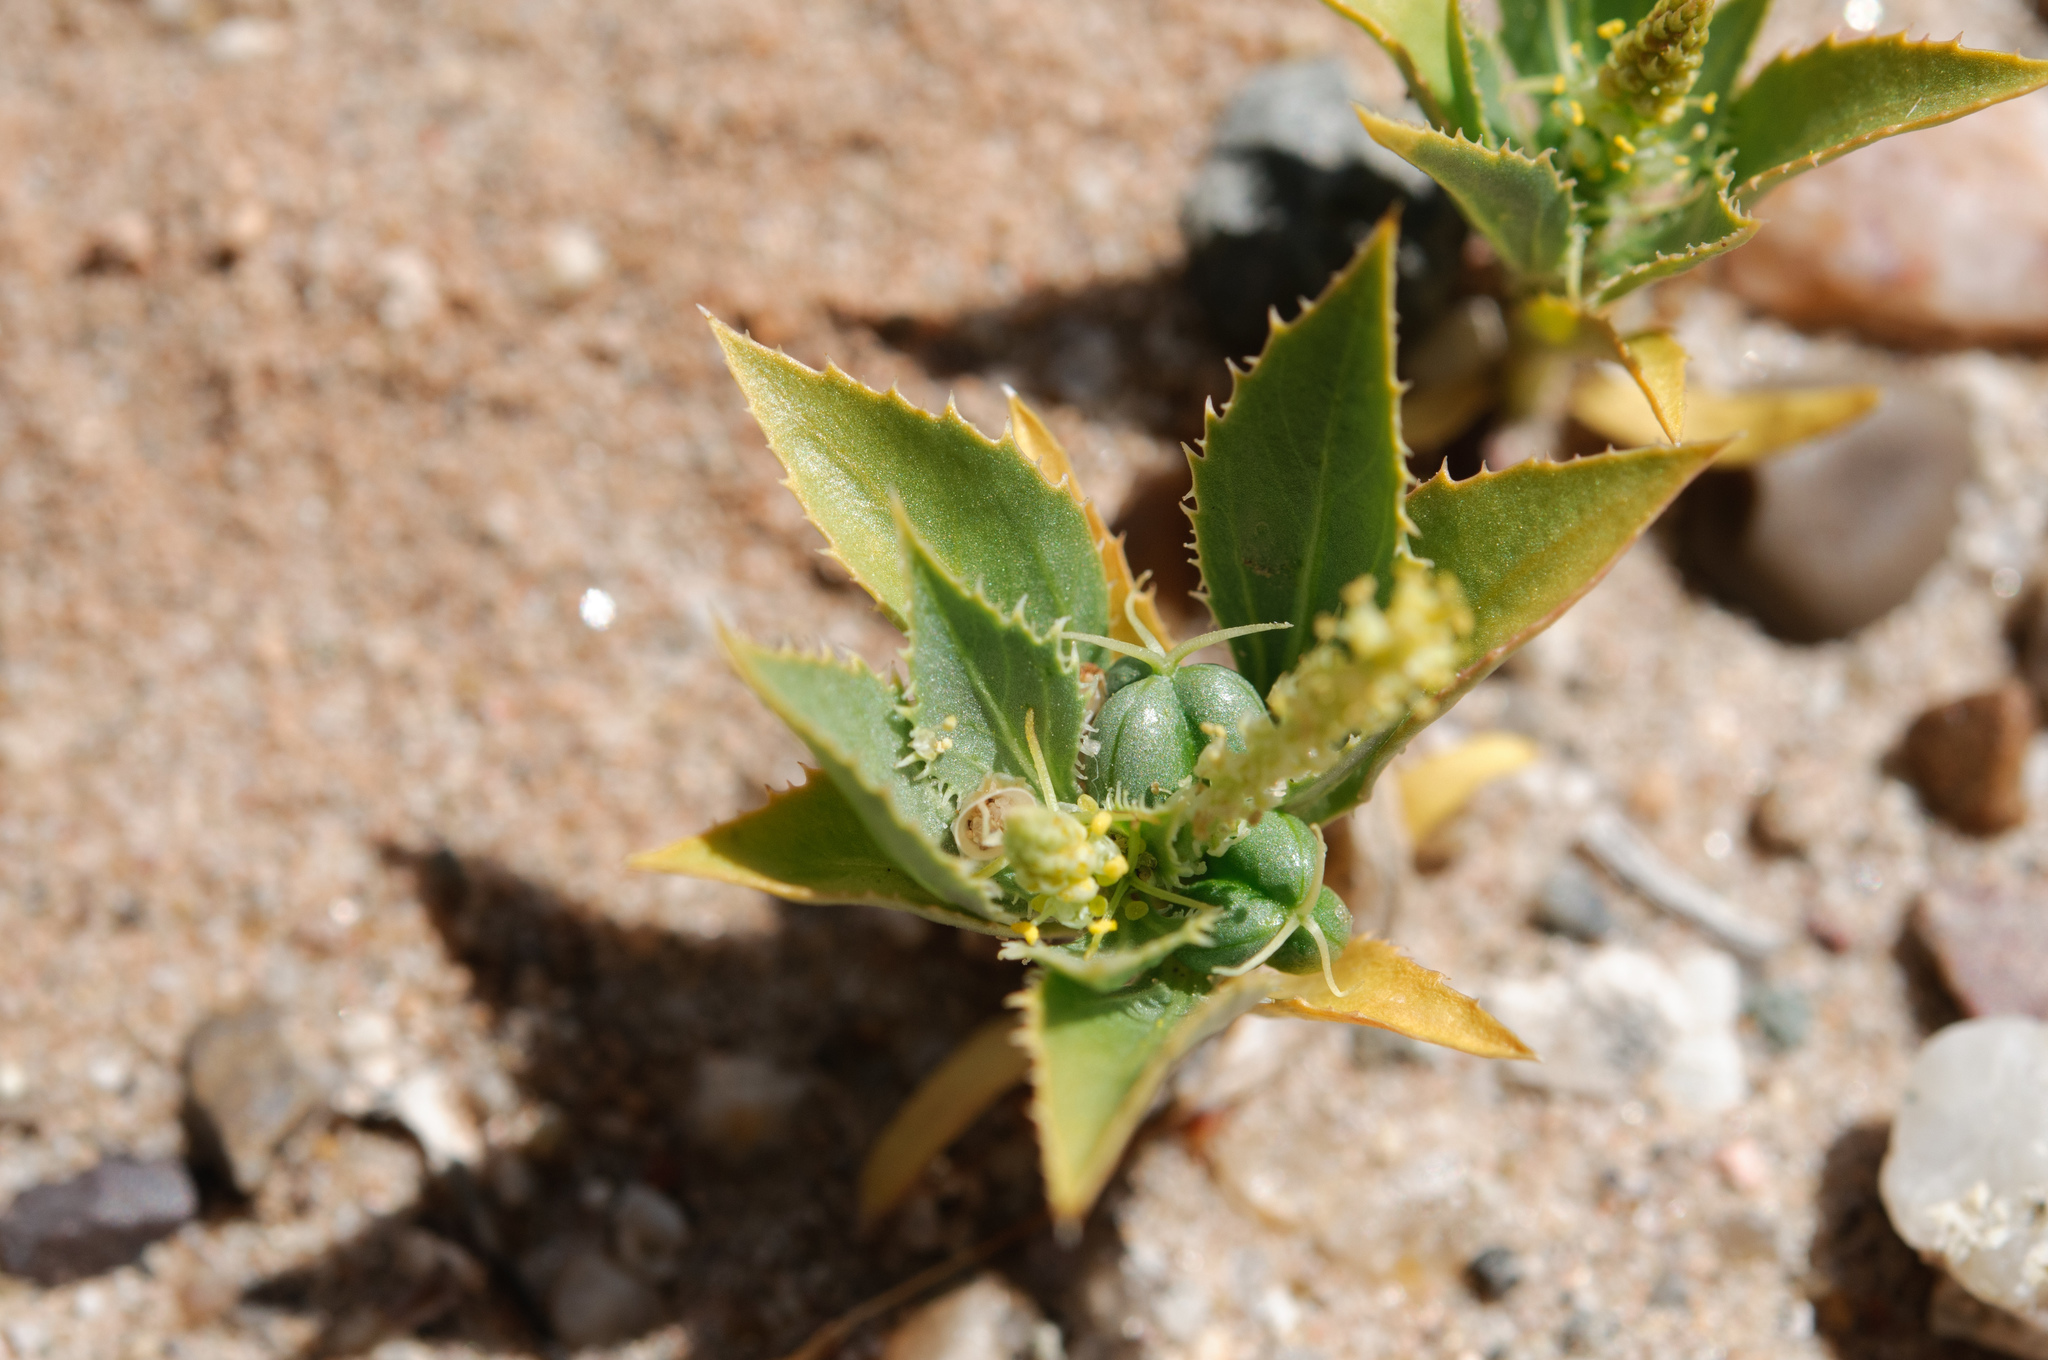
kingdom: Plantae
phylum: Tracheophyta
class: Magnoliopsida
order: Malpighiales
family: Euphorbiaceae
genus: Stillingia
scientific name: Stillingia spinulosa
